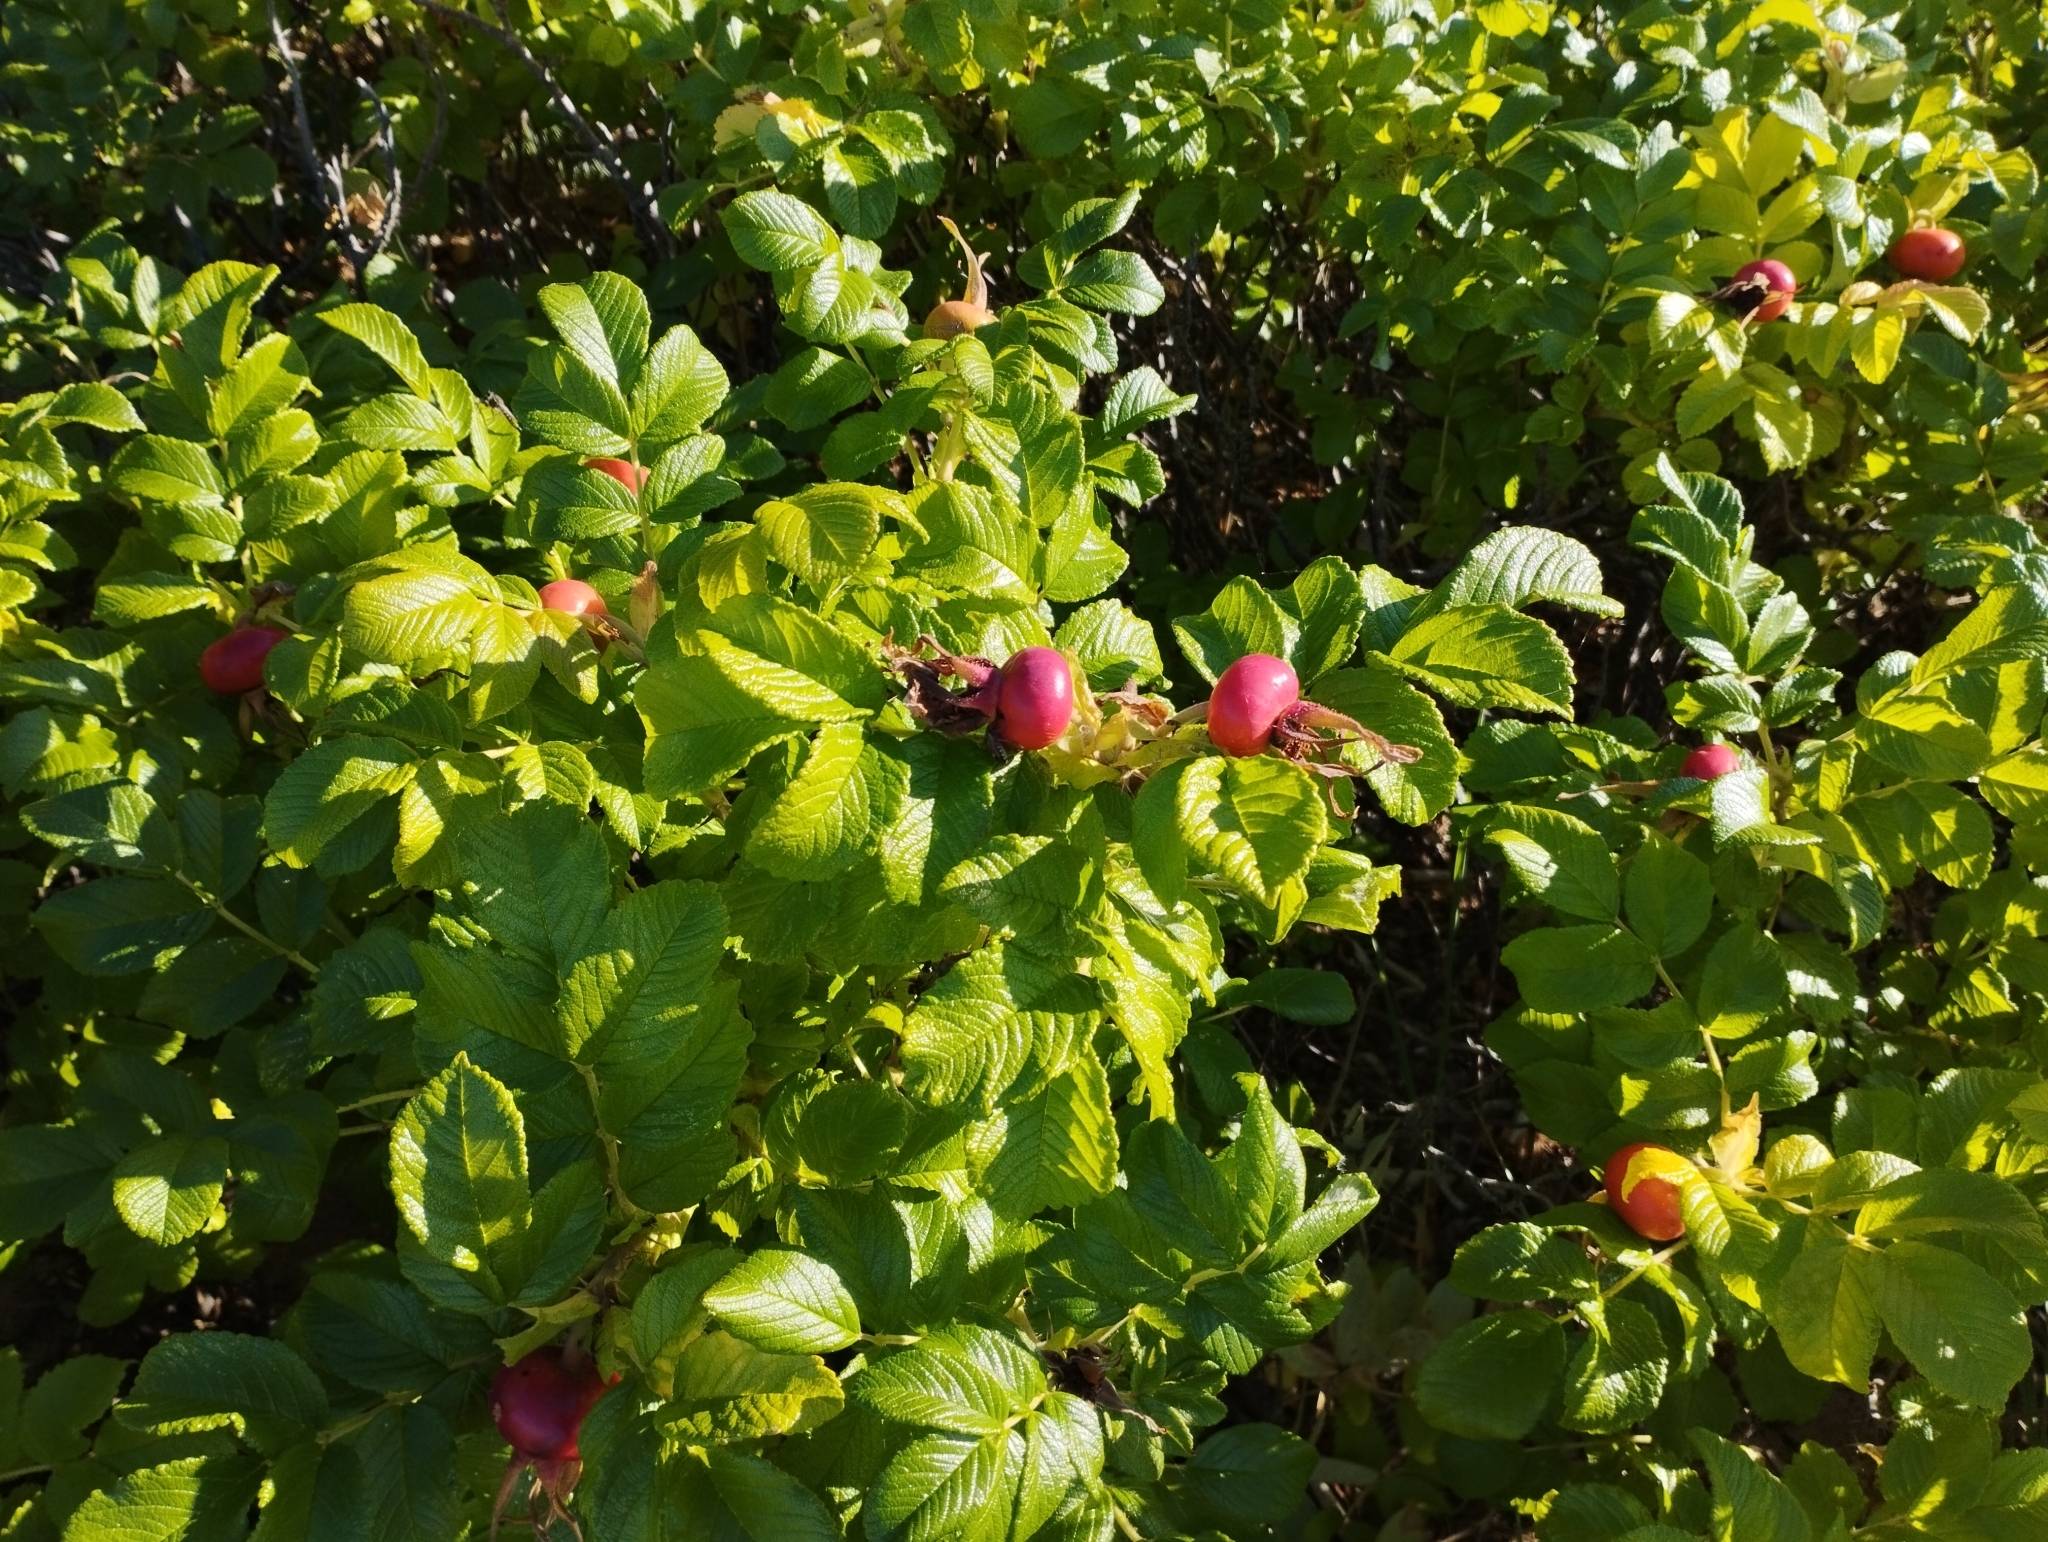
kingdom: Plantae
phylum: Tracheophyta
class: Magnoliopsida
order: Rosales
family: Rosaceae
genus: Rosa
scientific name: Rosa rugosa
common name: Japanese rose
